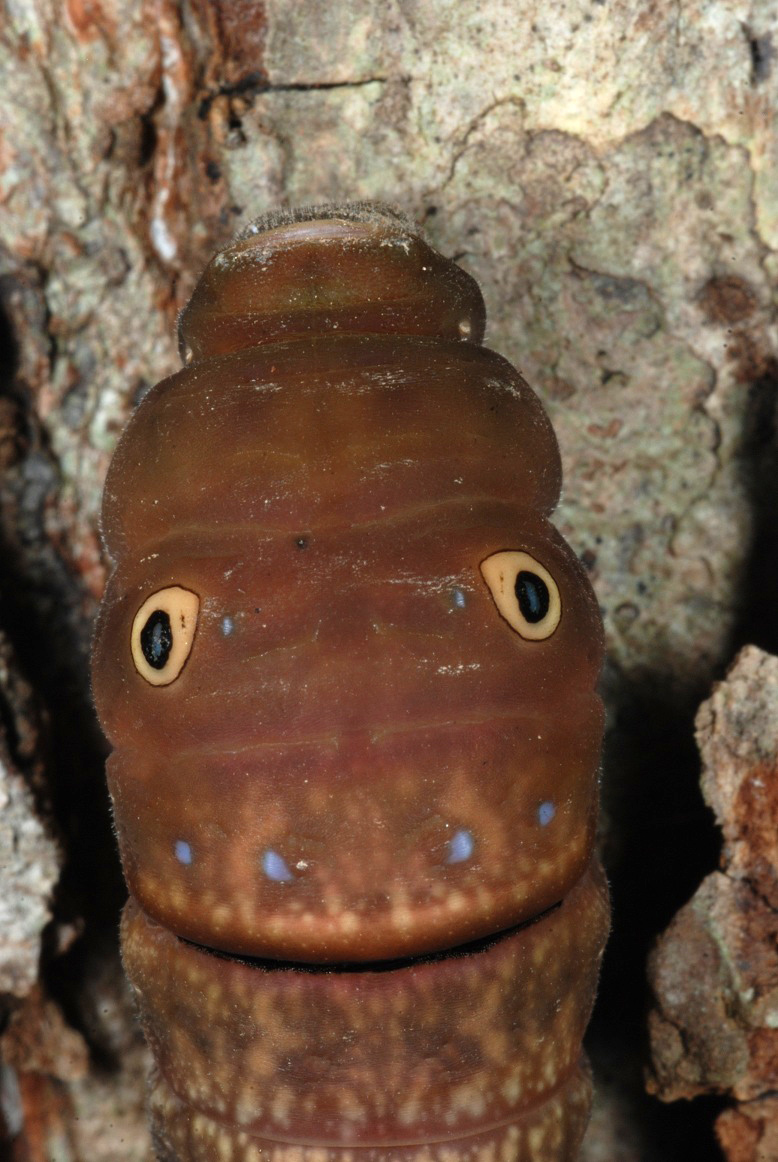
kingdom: Animalia
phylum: Arthropoda
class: Insecta
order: Lepidoptera
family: Papilionidae
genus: Papilio
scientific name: Papilio glaucus
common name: Tiger swallowtail
